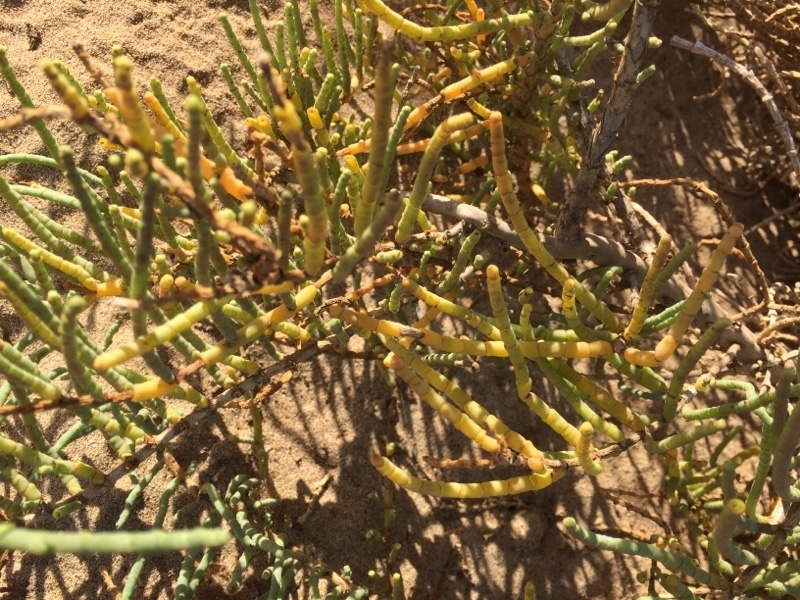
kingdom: Plantae
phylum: Tracheophyta
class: Magnoliopsida
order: Caryophyllales
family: Amaranthaceae
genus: Arthrocaulon
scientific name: Arthrocaulon macrostachyum
